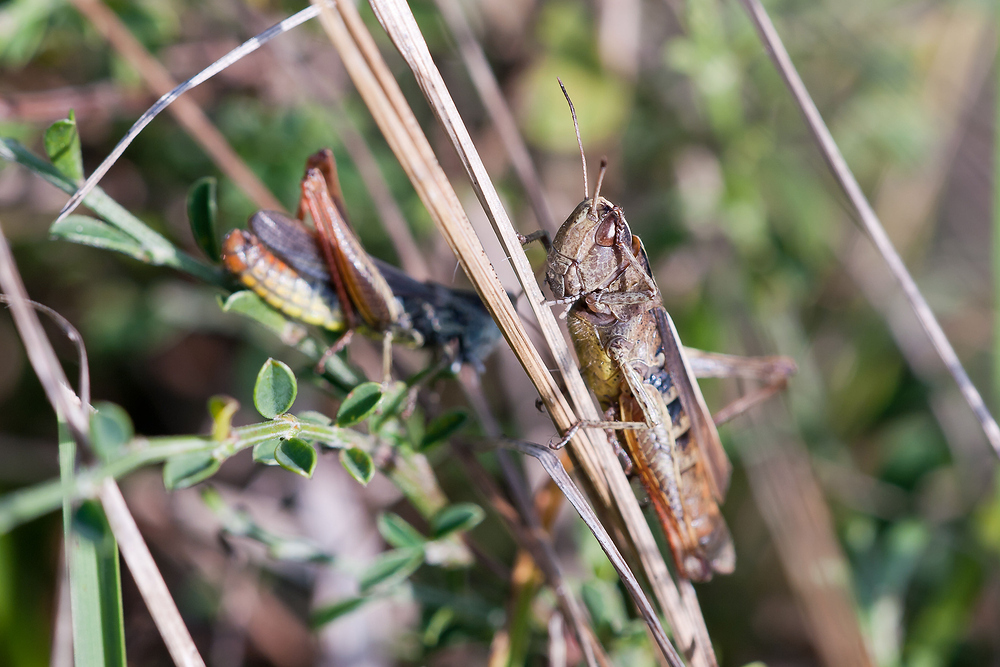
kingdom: Animalia
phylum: Arthropoda
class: Insecta
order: Orthoptera
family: Acrididae
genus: Gomphocerippus
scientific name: Gomphocerippus rufus
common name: Rufous grasshopper
